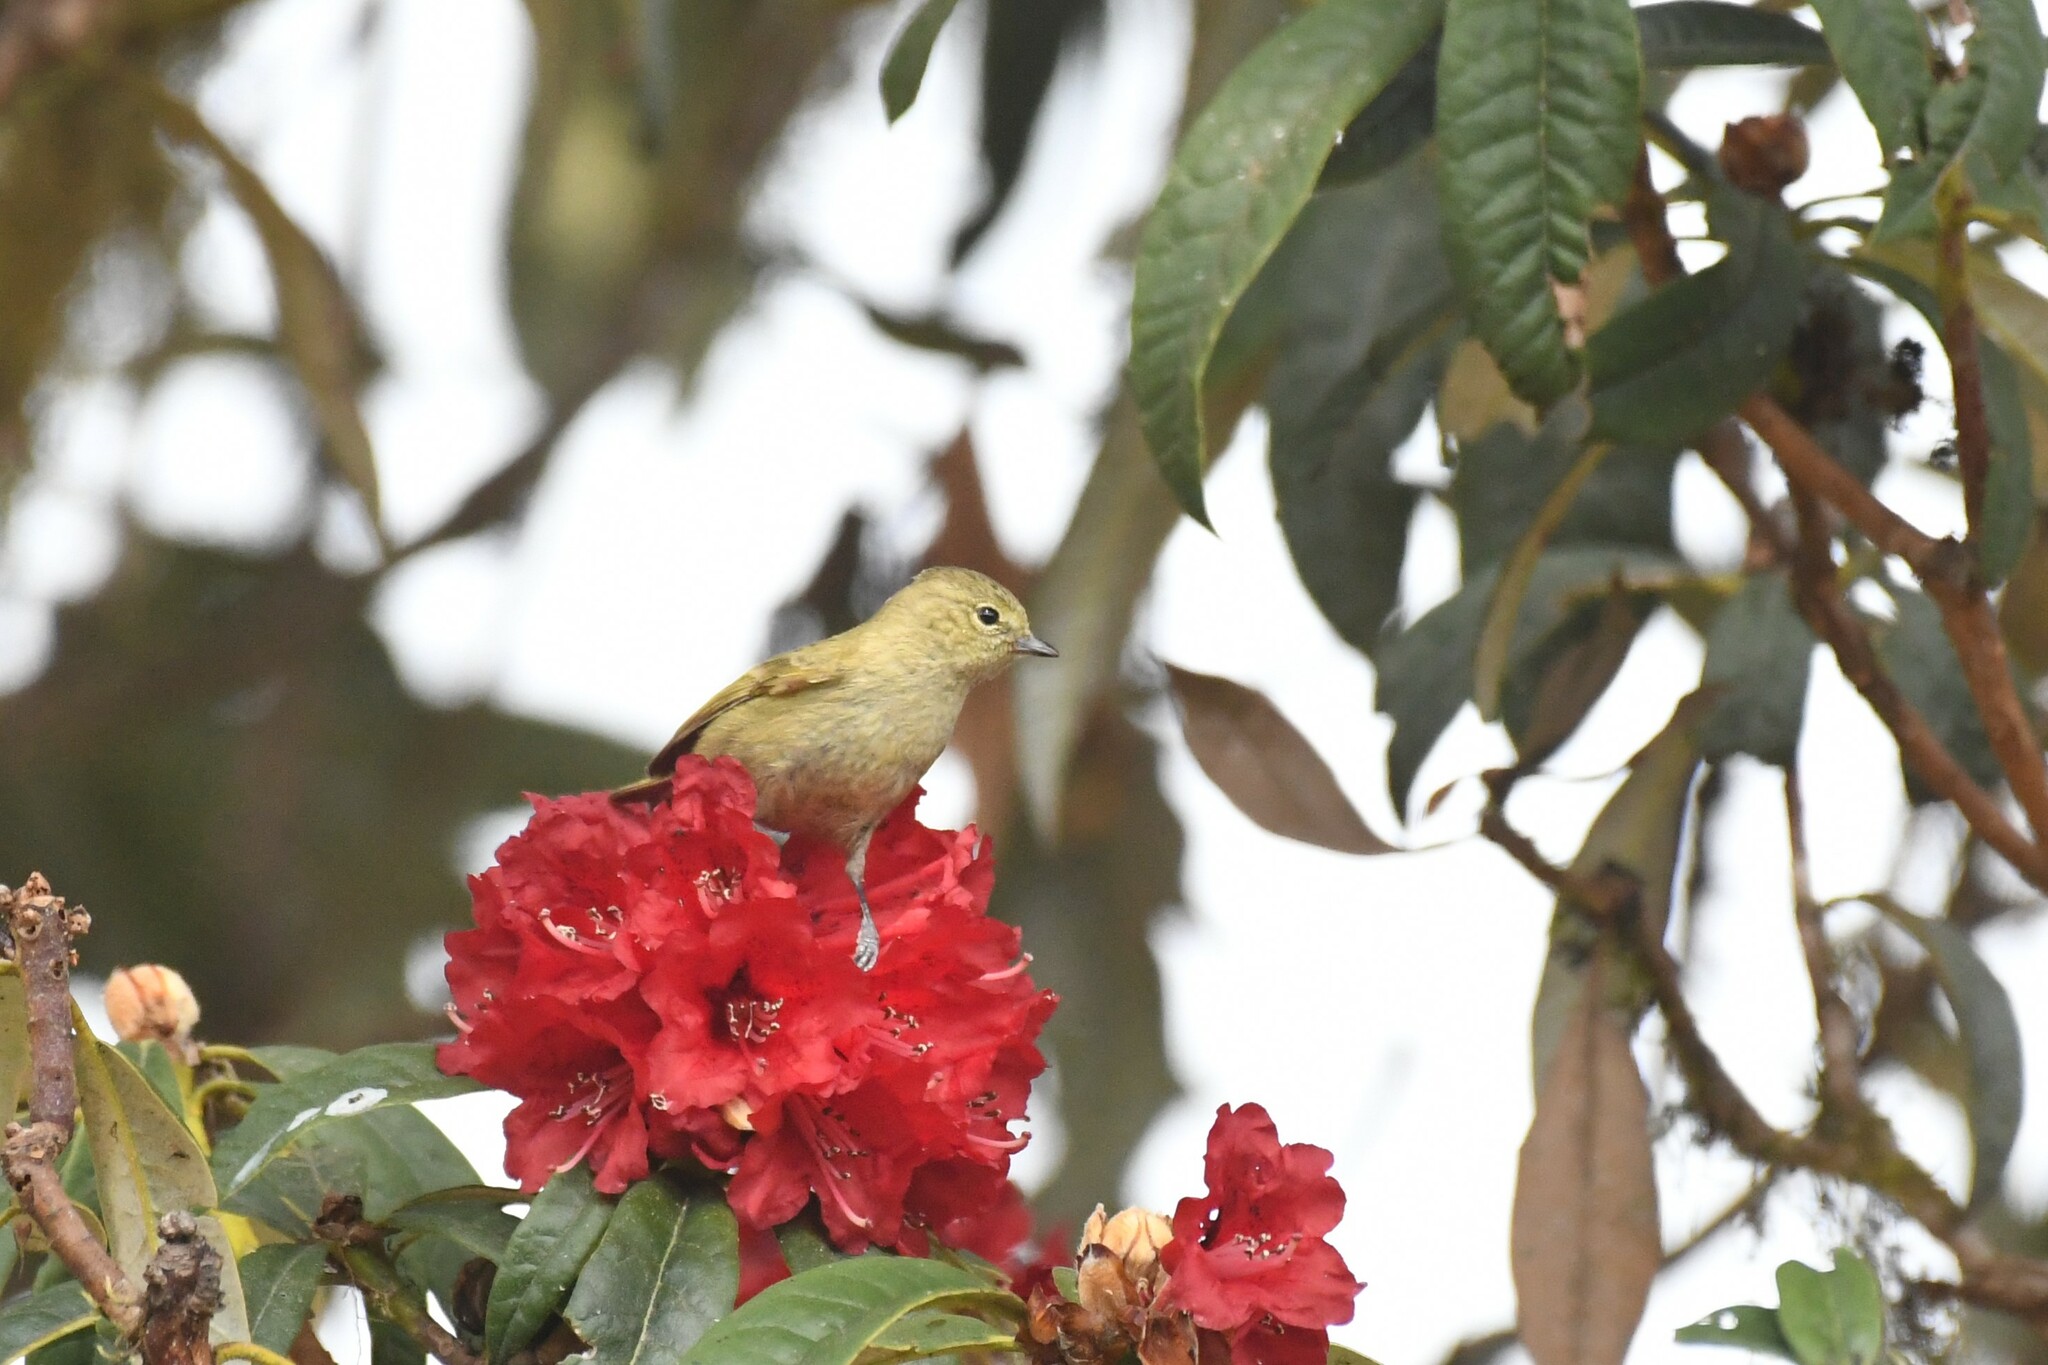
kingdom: Animalia
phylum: Chordata
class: Aves
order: Passeriformes
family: Paridae
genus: Sylviparus
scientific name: Sylviparus modestus
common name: Yellow-browed tit
